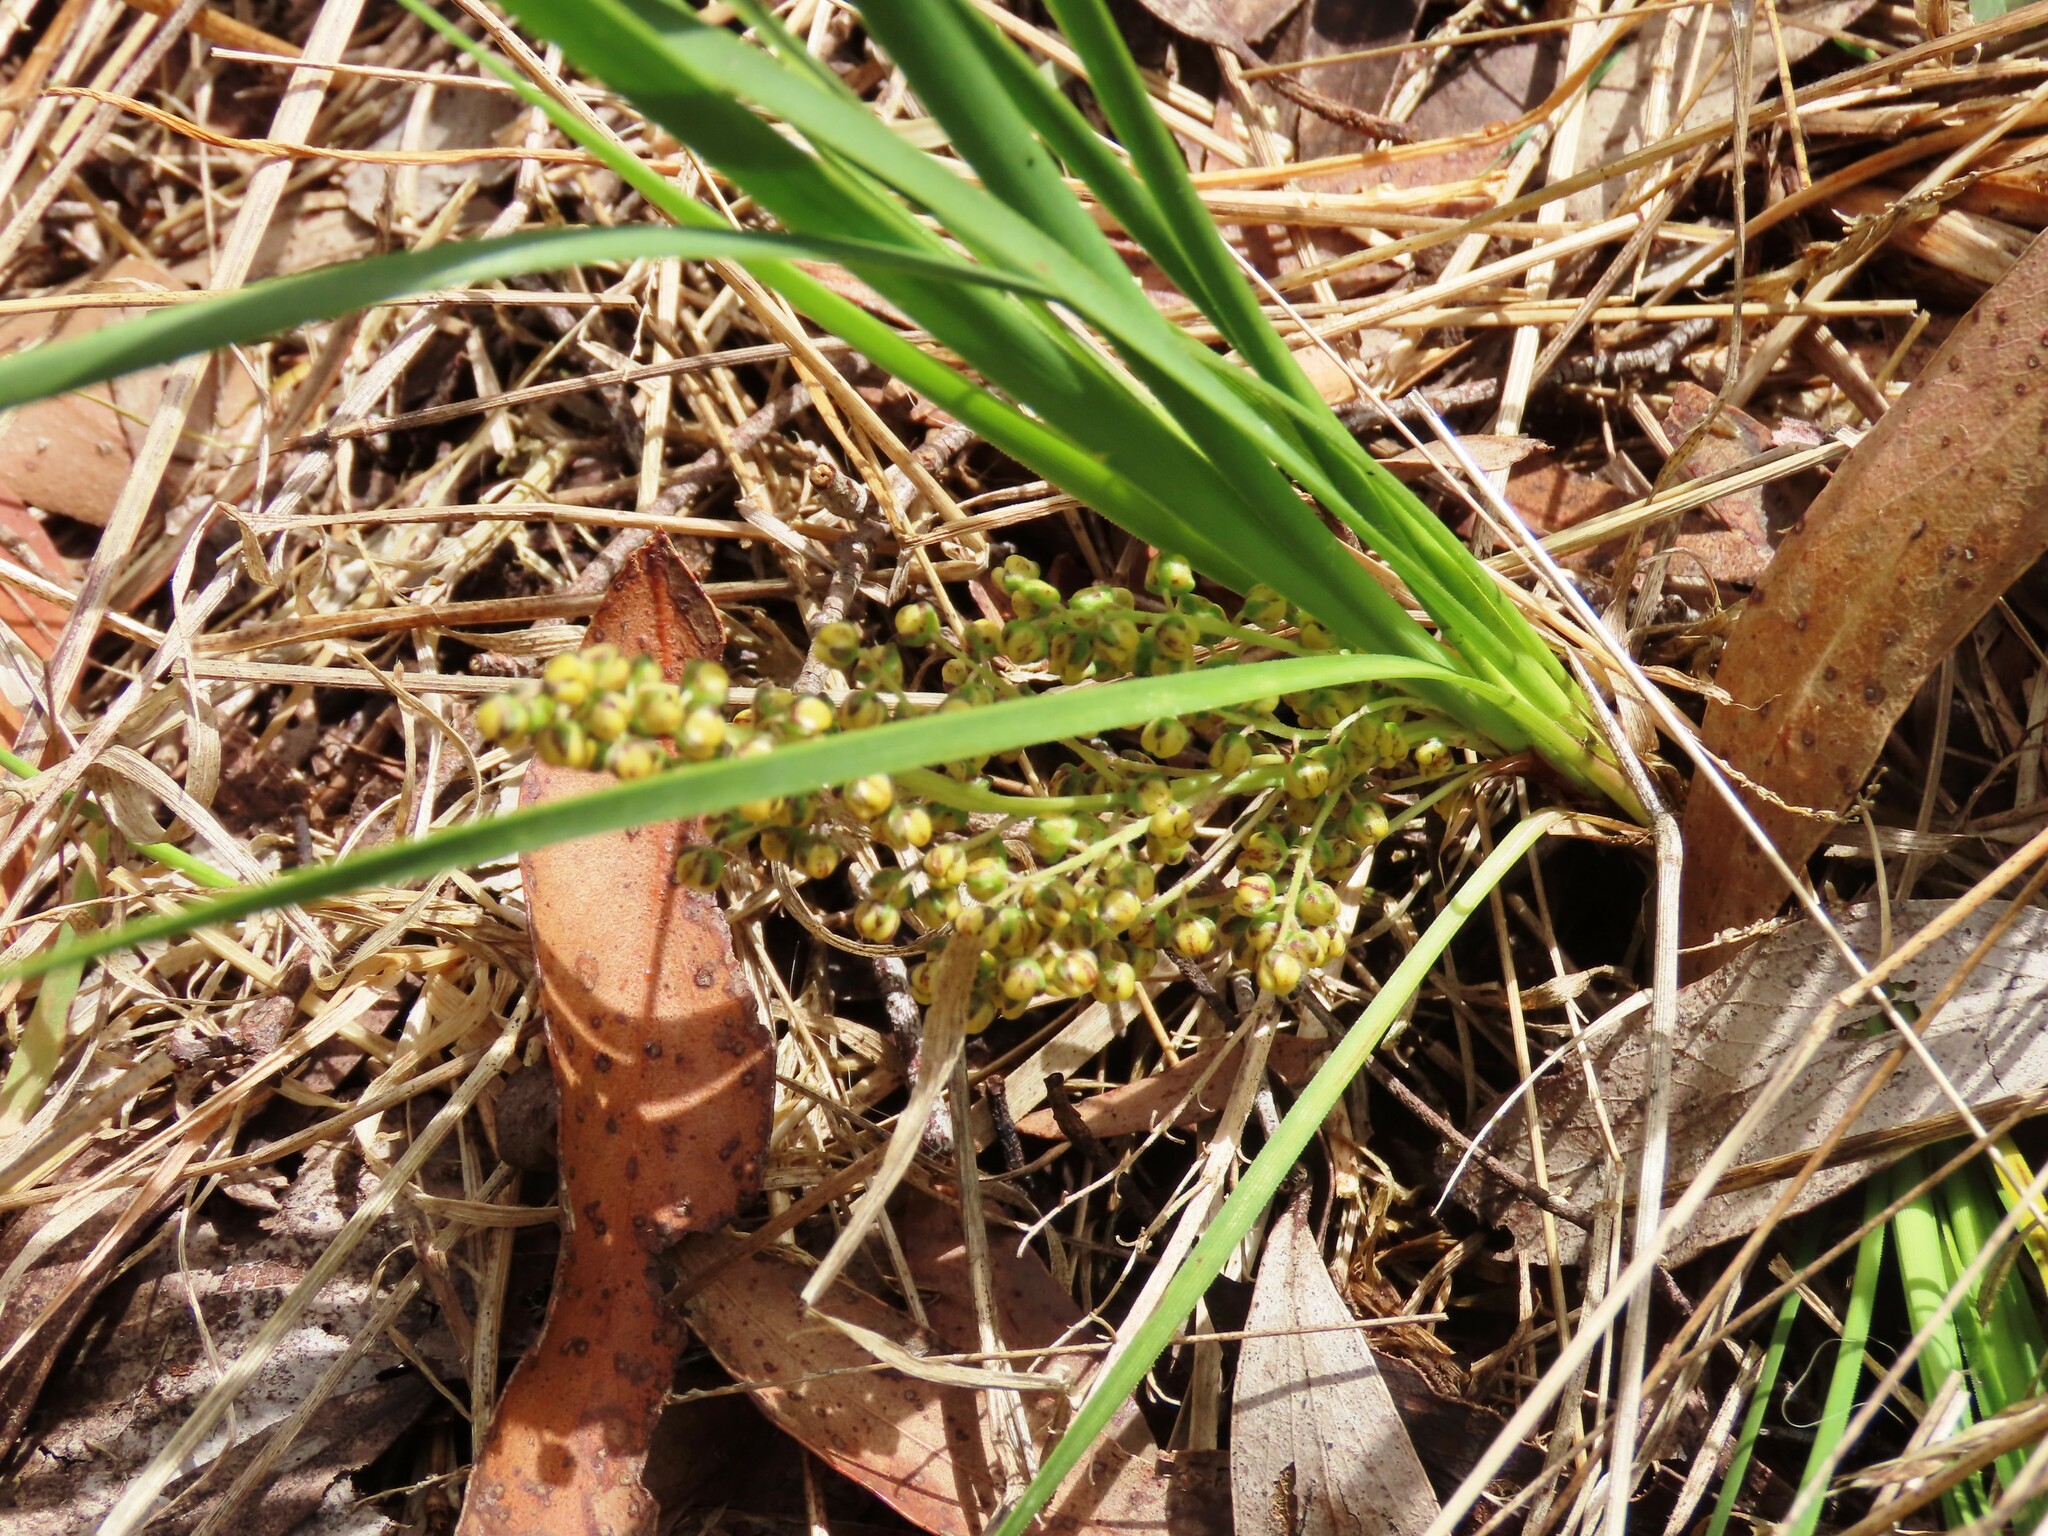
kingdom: Plantae
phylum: Tracheophyta
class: Liliopsida
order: Asparagales
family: Asparagaceae
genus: Lomandra
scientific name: Lomandra filiformis
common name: Wattle mat-rush
